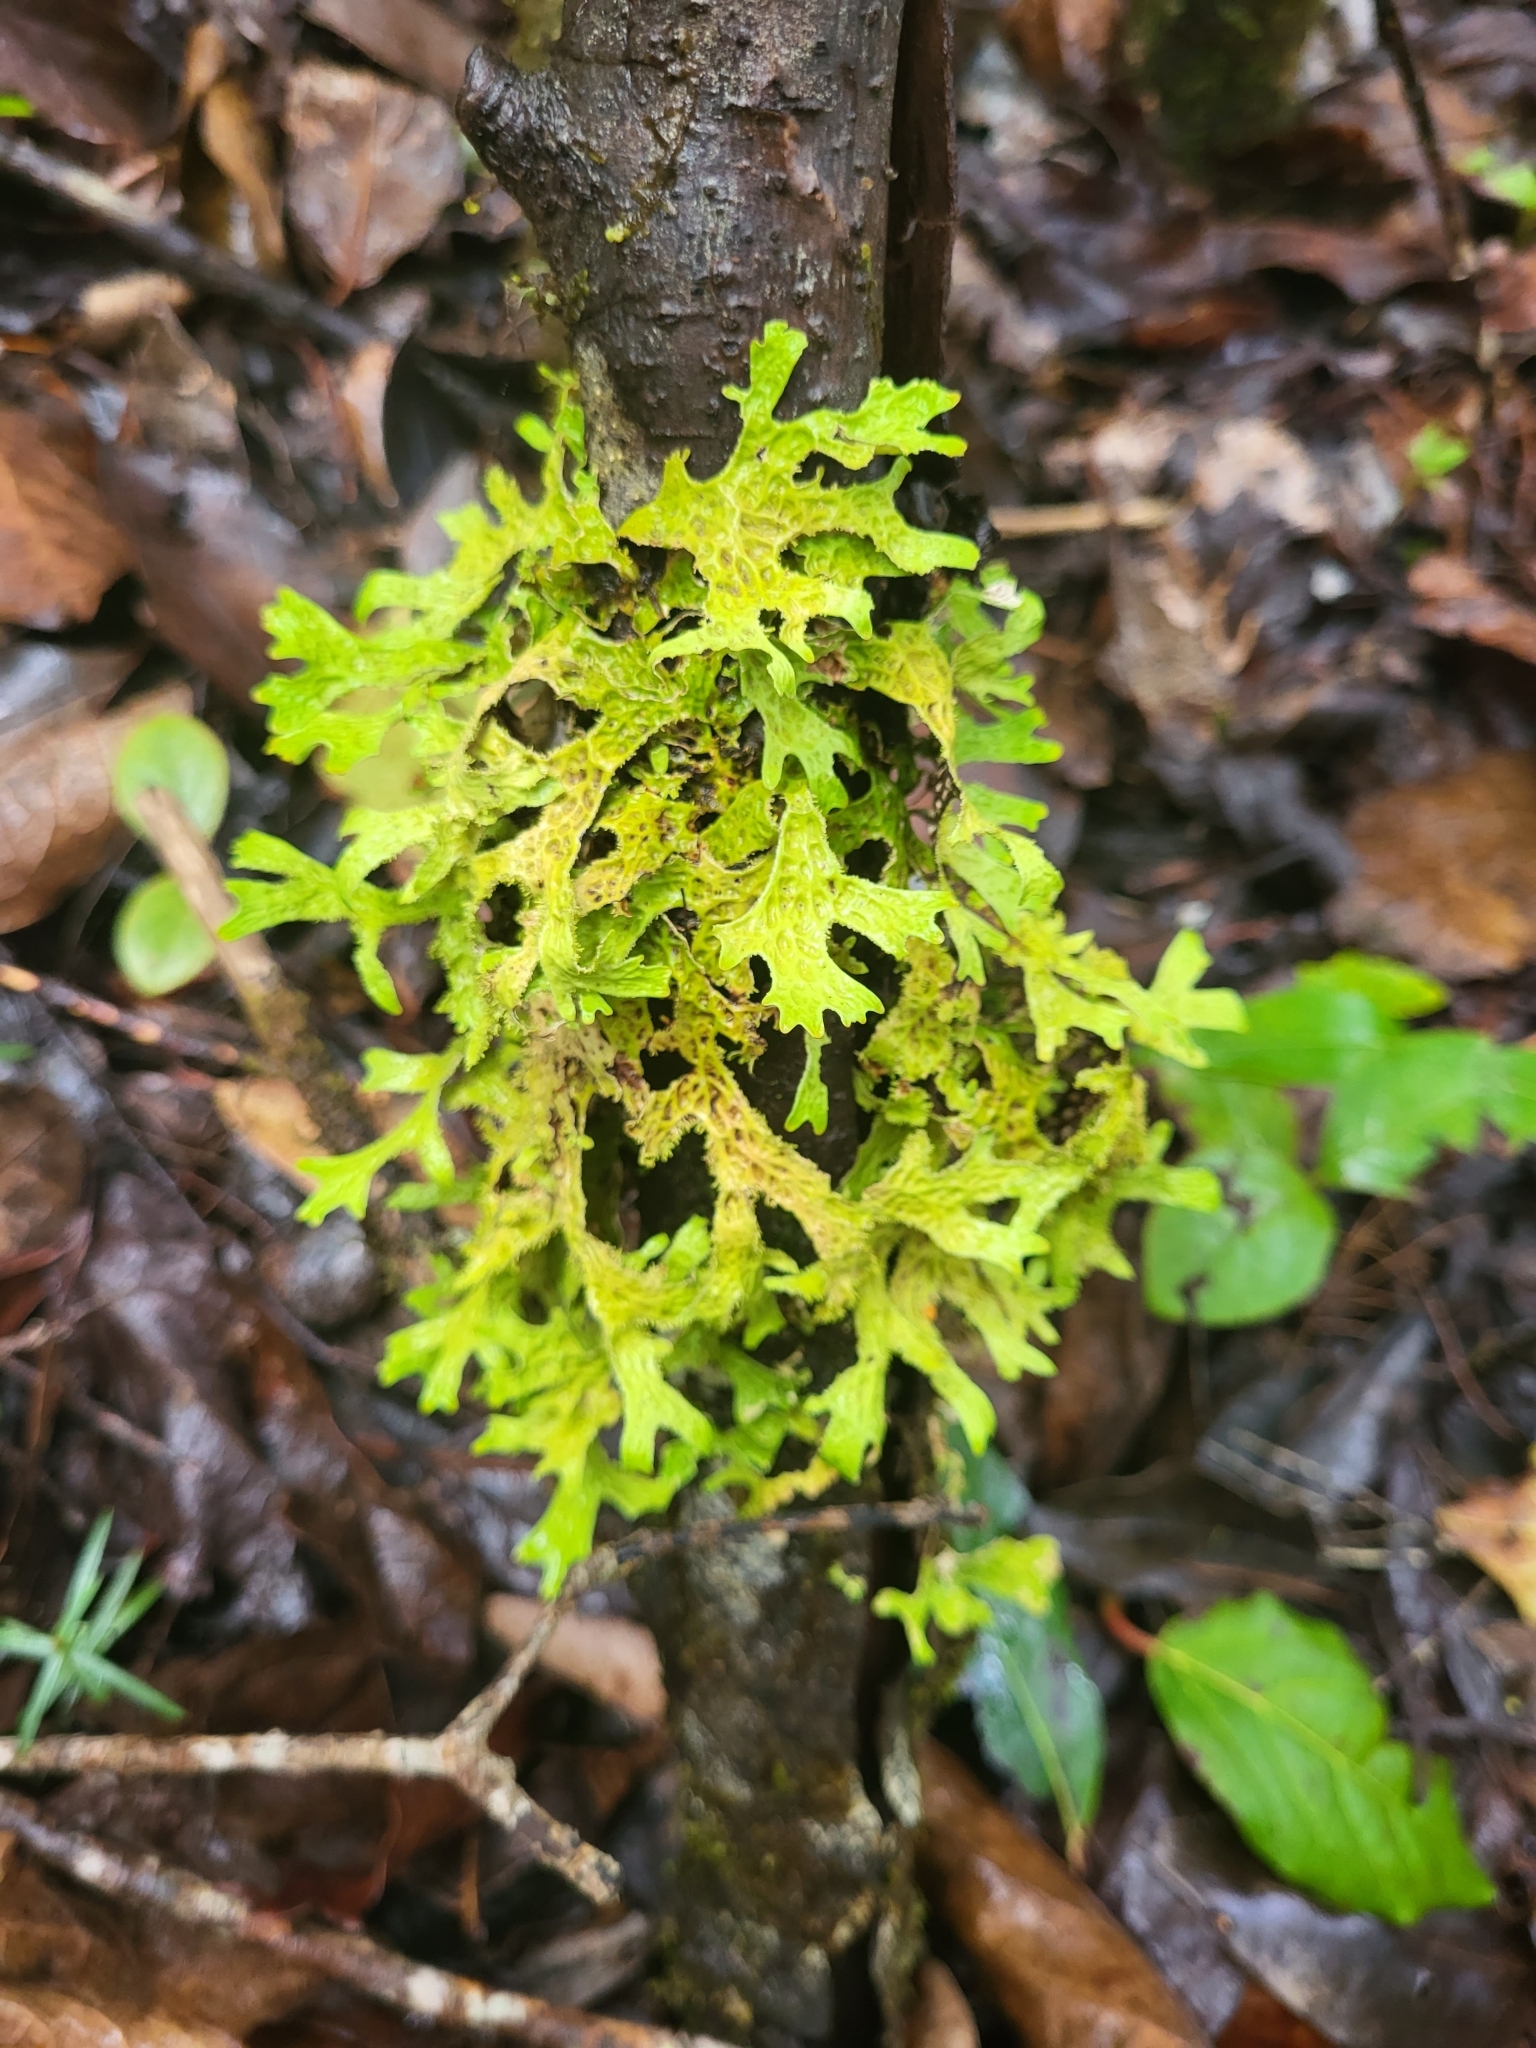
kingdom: Fungi
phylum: Ascomycota
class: Lecanoromycetes
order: Peltigerales
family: Lobariaceae
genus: Lobaria
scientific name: Lobaria pulmonaria
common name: Lungwort
